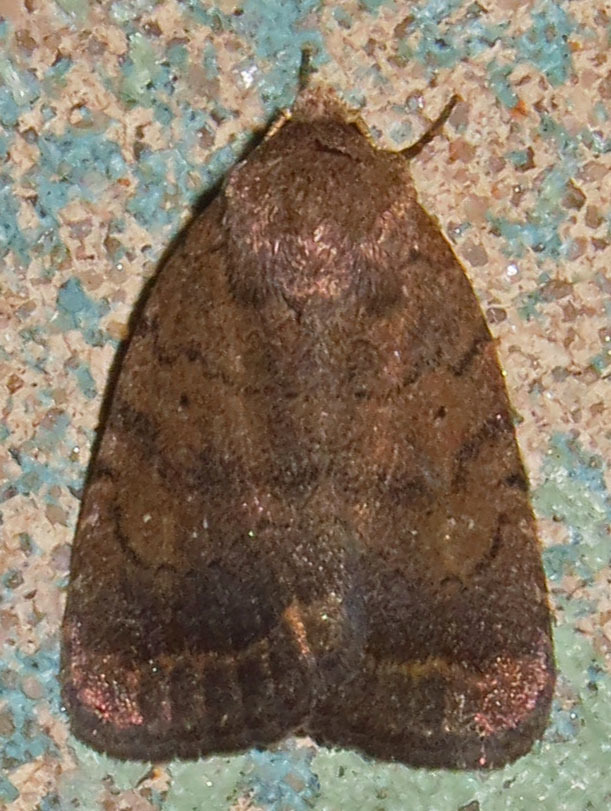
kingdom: Animalia
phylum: Arthropoda
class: Insecta
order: Lepidoptera
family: Noctuidae
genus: Athetis
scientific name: Athetis tarda
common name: Slowpoke moth
